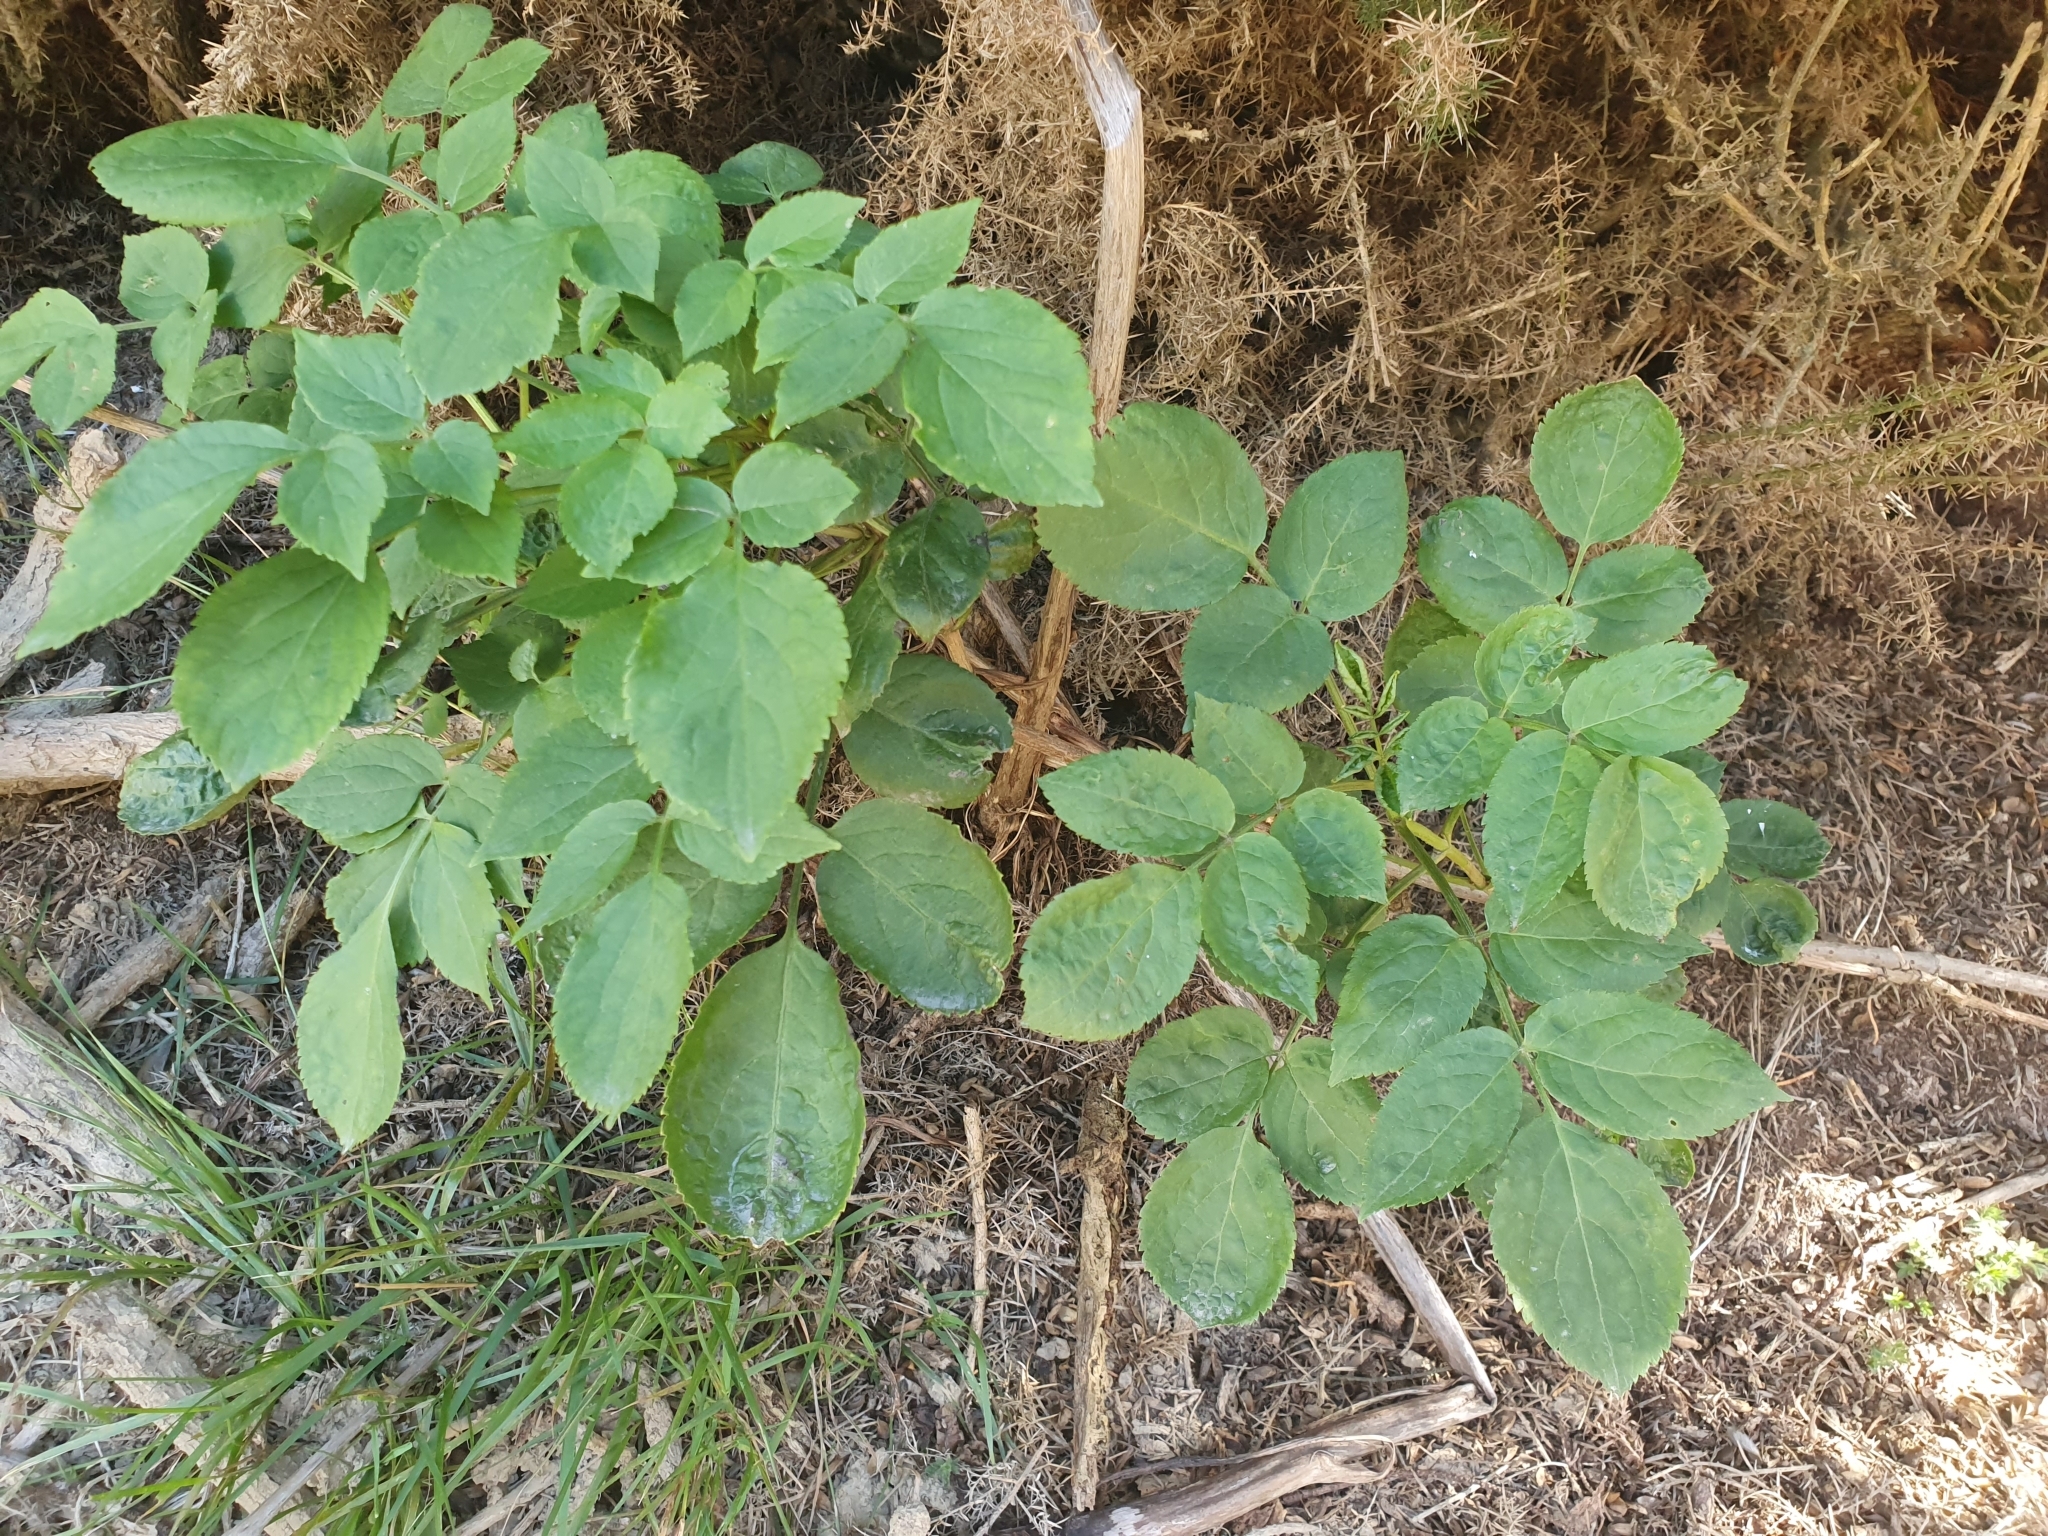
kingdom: Plantae
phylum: Tracheophyta
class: Magnoliopsida
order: Dipsacales
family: Viburnaceae
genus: Sambucus
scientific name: Sambucus nigra
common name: Elder
